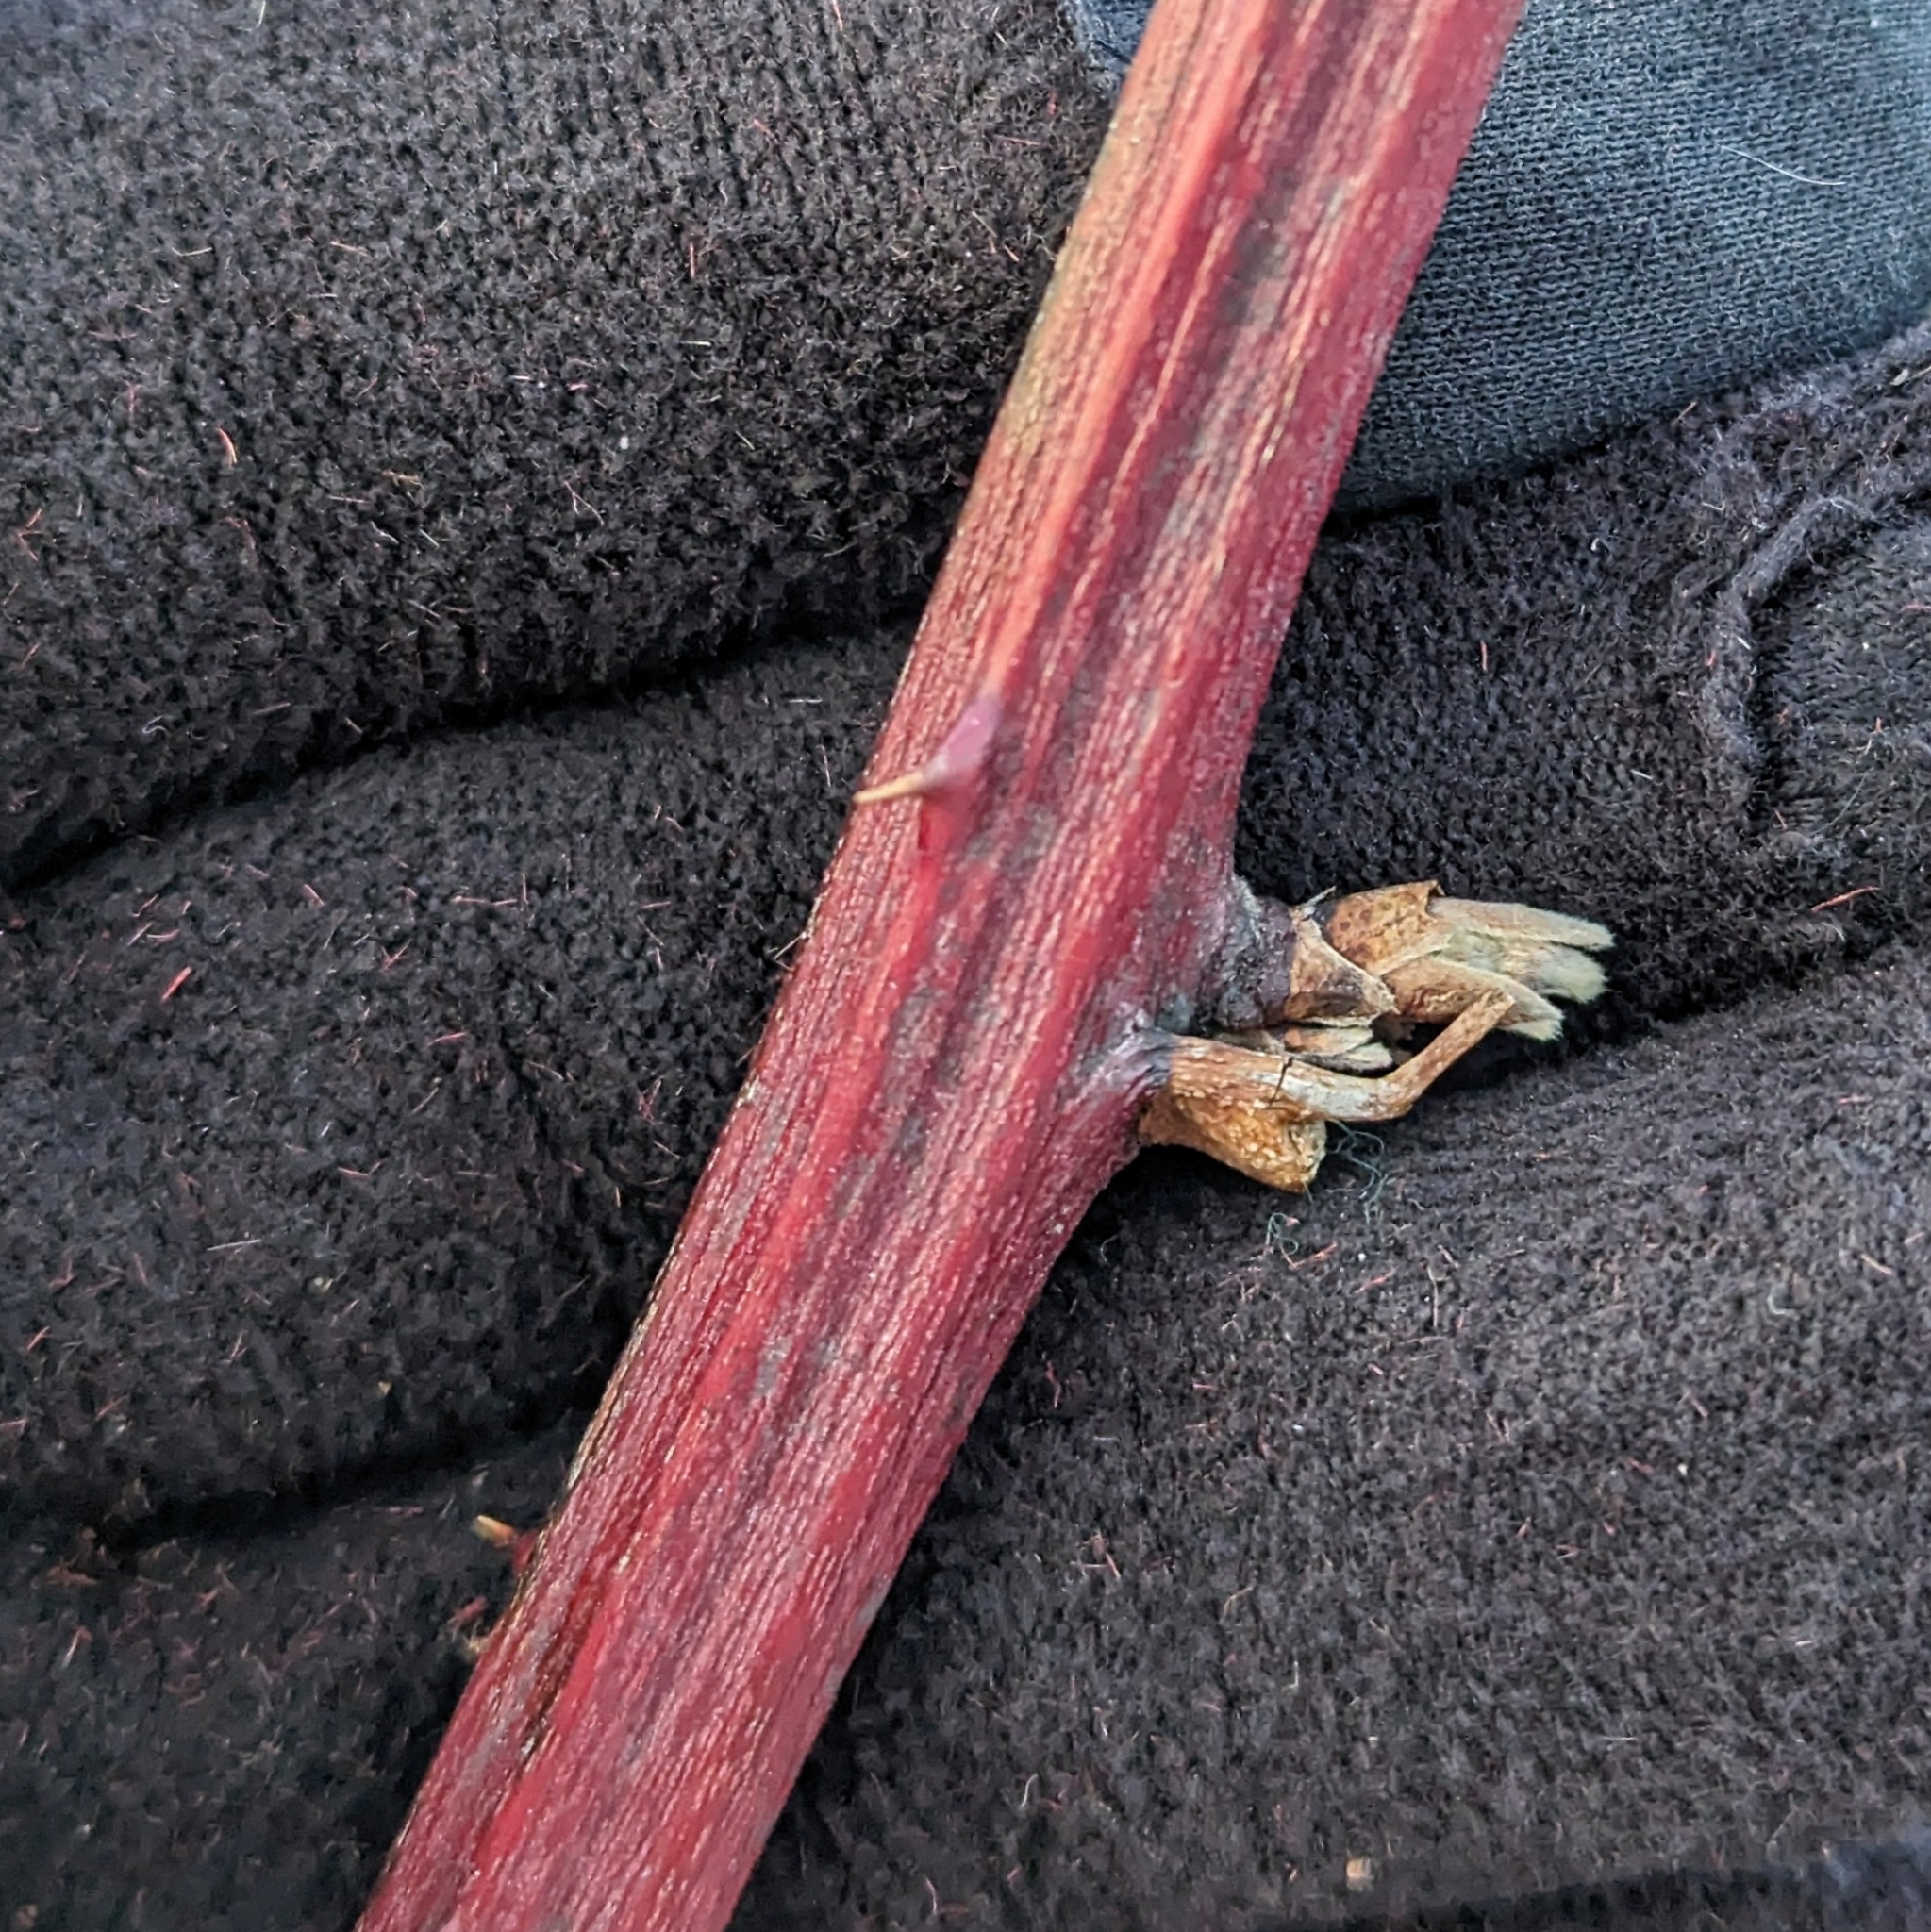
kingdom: Plantae
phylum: Tracheophyta
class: Magnoliopsida
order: Rosales
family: Rosaceae
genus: Rubus
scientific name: Rubus
